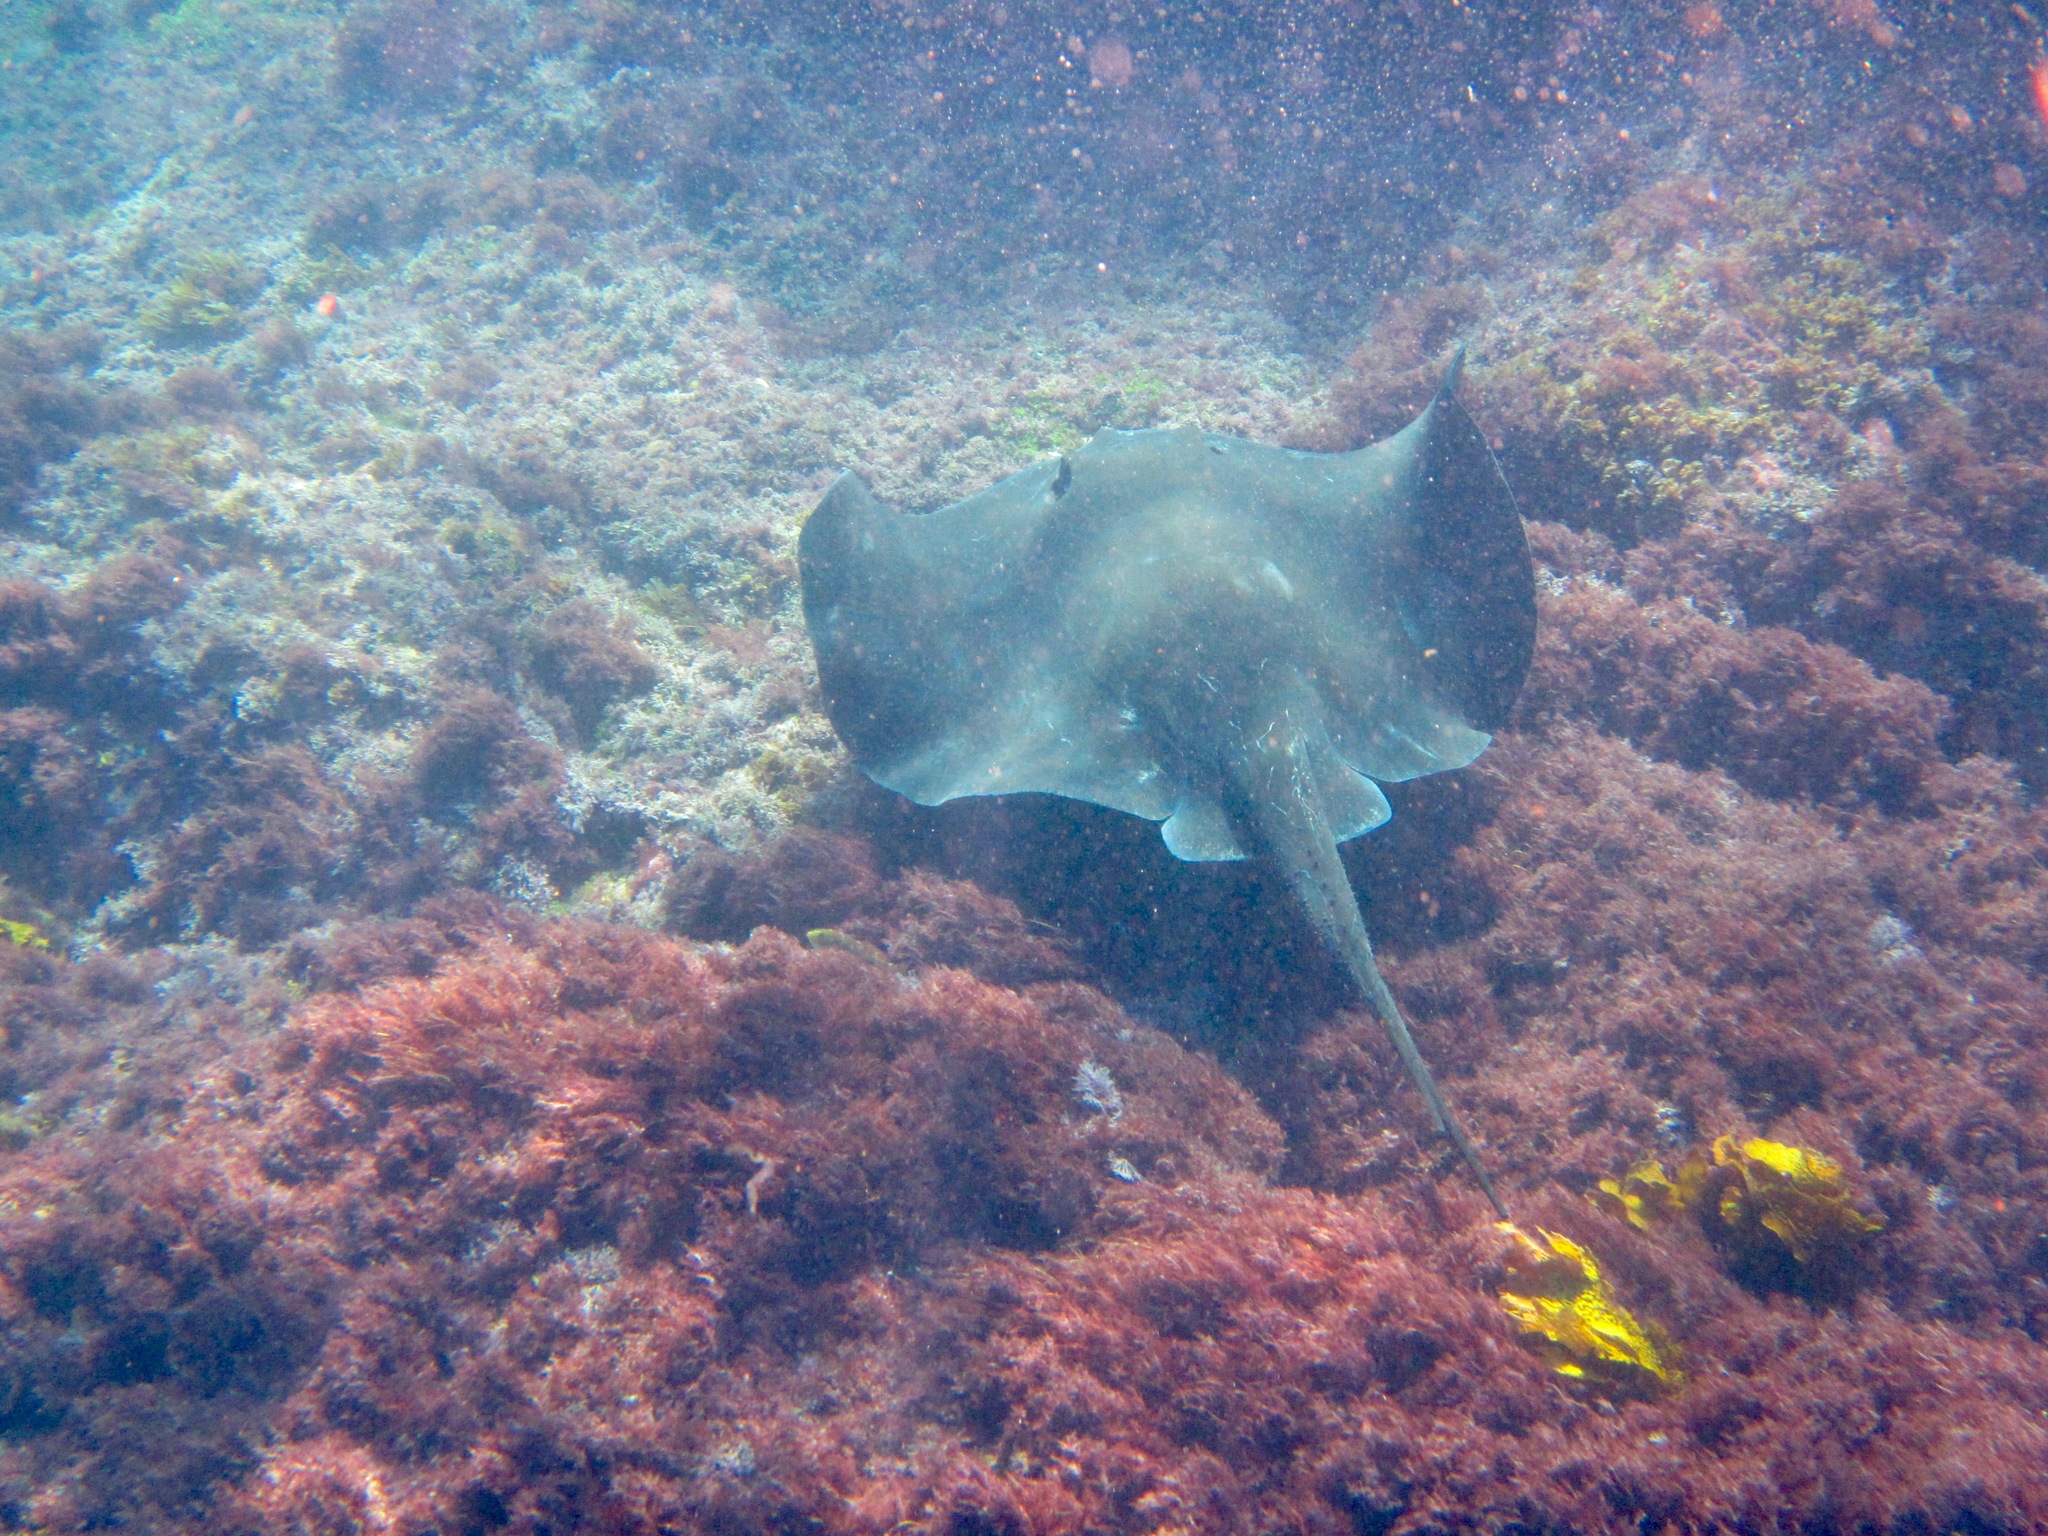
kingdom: Animalia
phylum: Chordata
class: Elasmobranchii
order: Myliobatiformes
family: Dasyatidae
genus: Bathytoshia
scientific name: Bathytoshia brevicaudata
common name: Short-tail stingray
